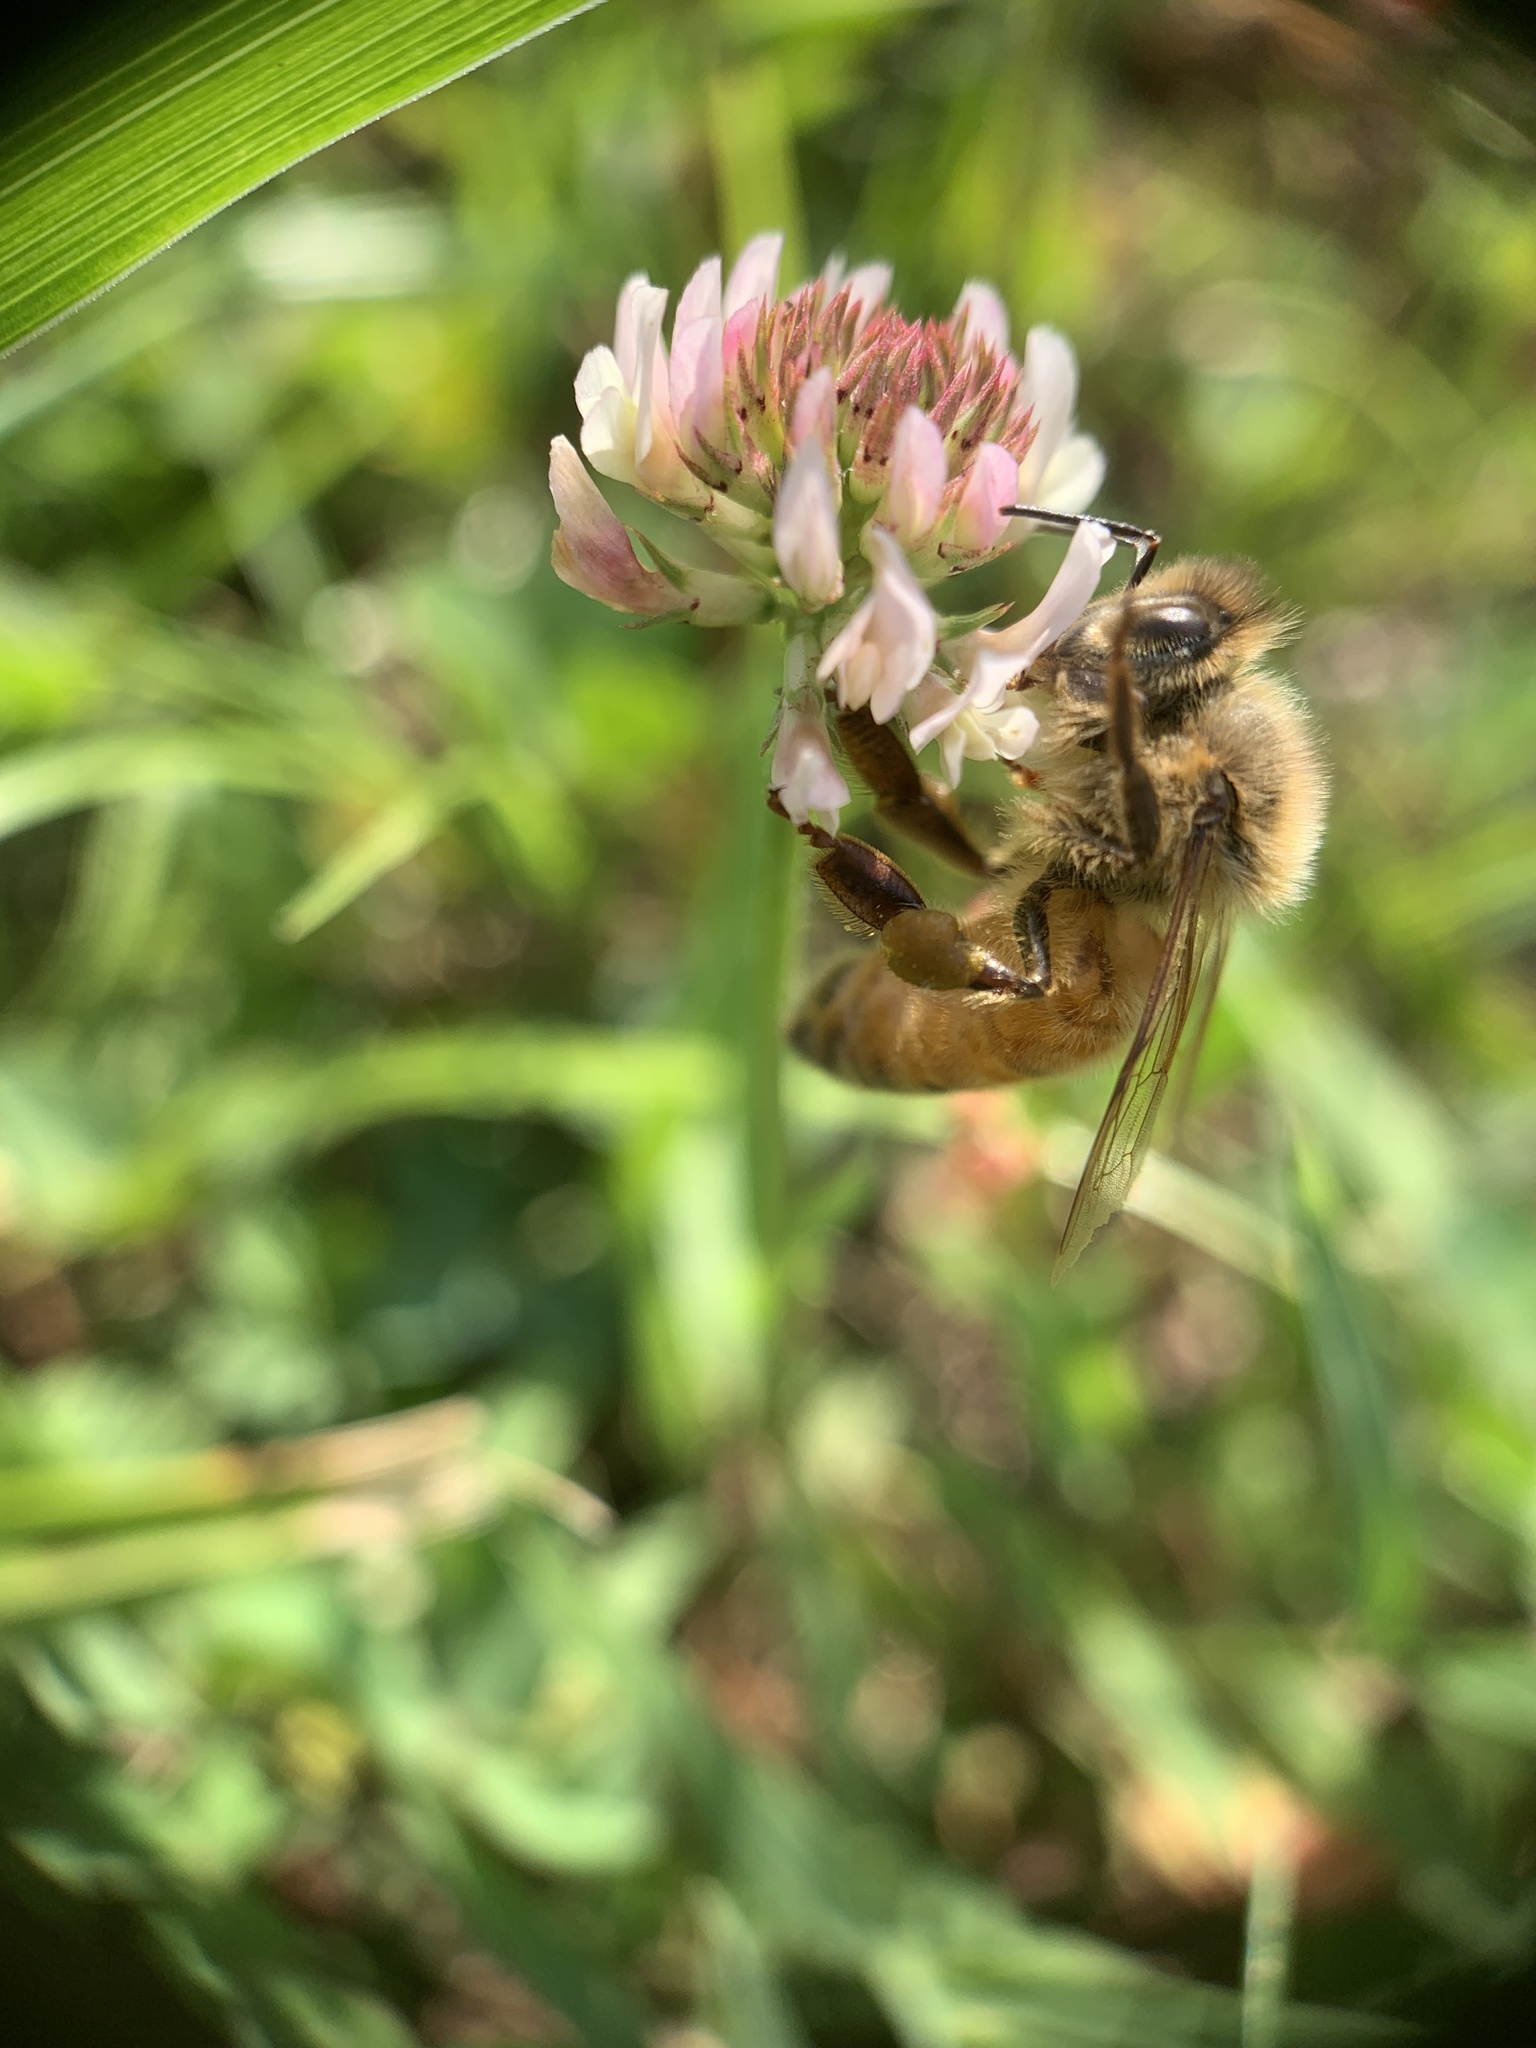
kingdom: Animalia
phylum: Arthropoda
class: Insecta
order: Hymenoptera
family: Apidae
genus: Apis
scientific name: Apis mellifera
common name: Honey bee
